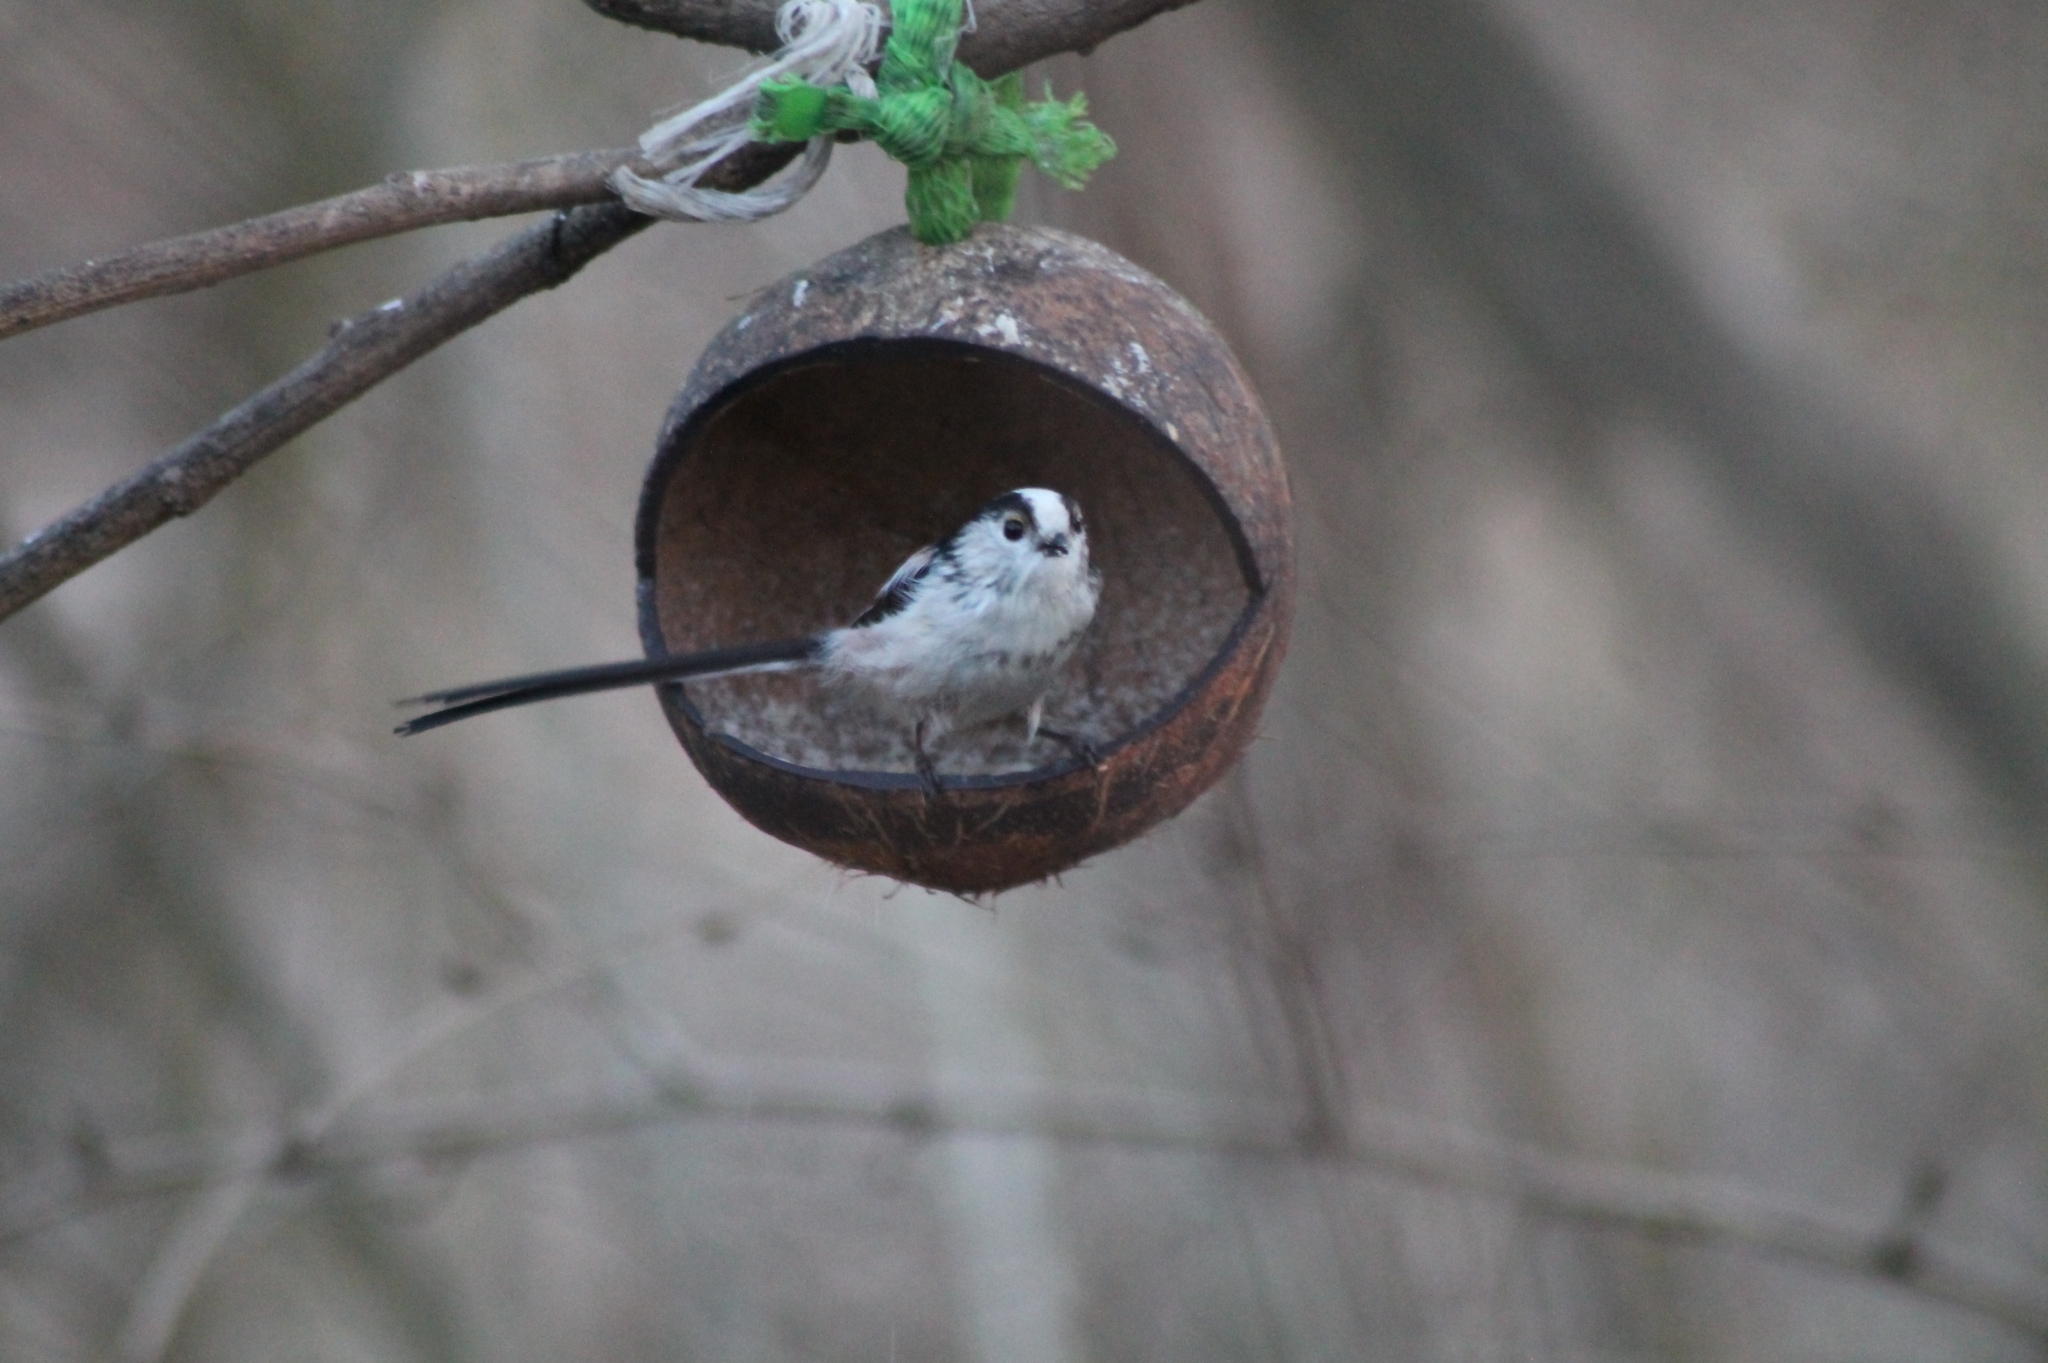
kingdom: Animalia
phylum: Chordata
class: Aves
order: Passeriformes
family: Aegithalidae
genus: Aegithalos
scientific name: Aegithalos caudatus
